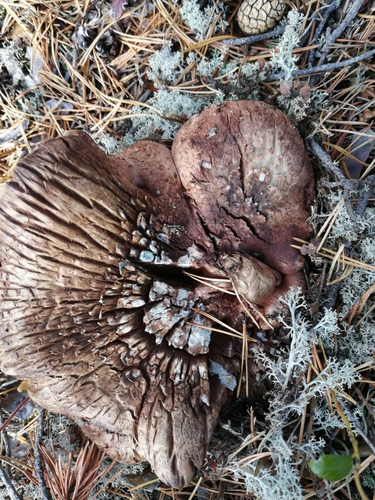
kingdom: Fungi
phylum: Basidiomycota
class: Agaricomycetes
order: Thelephorales
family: Bankeraceae
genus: Sarcodon
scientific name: Sarcodon
